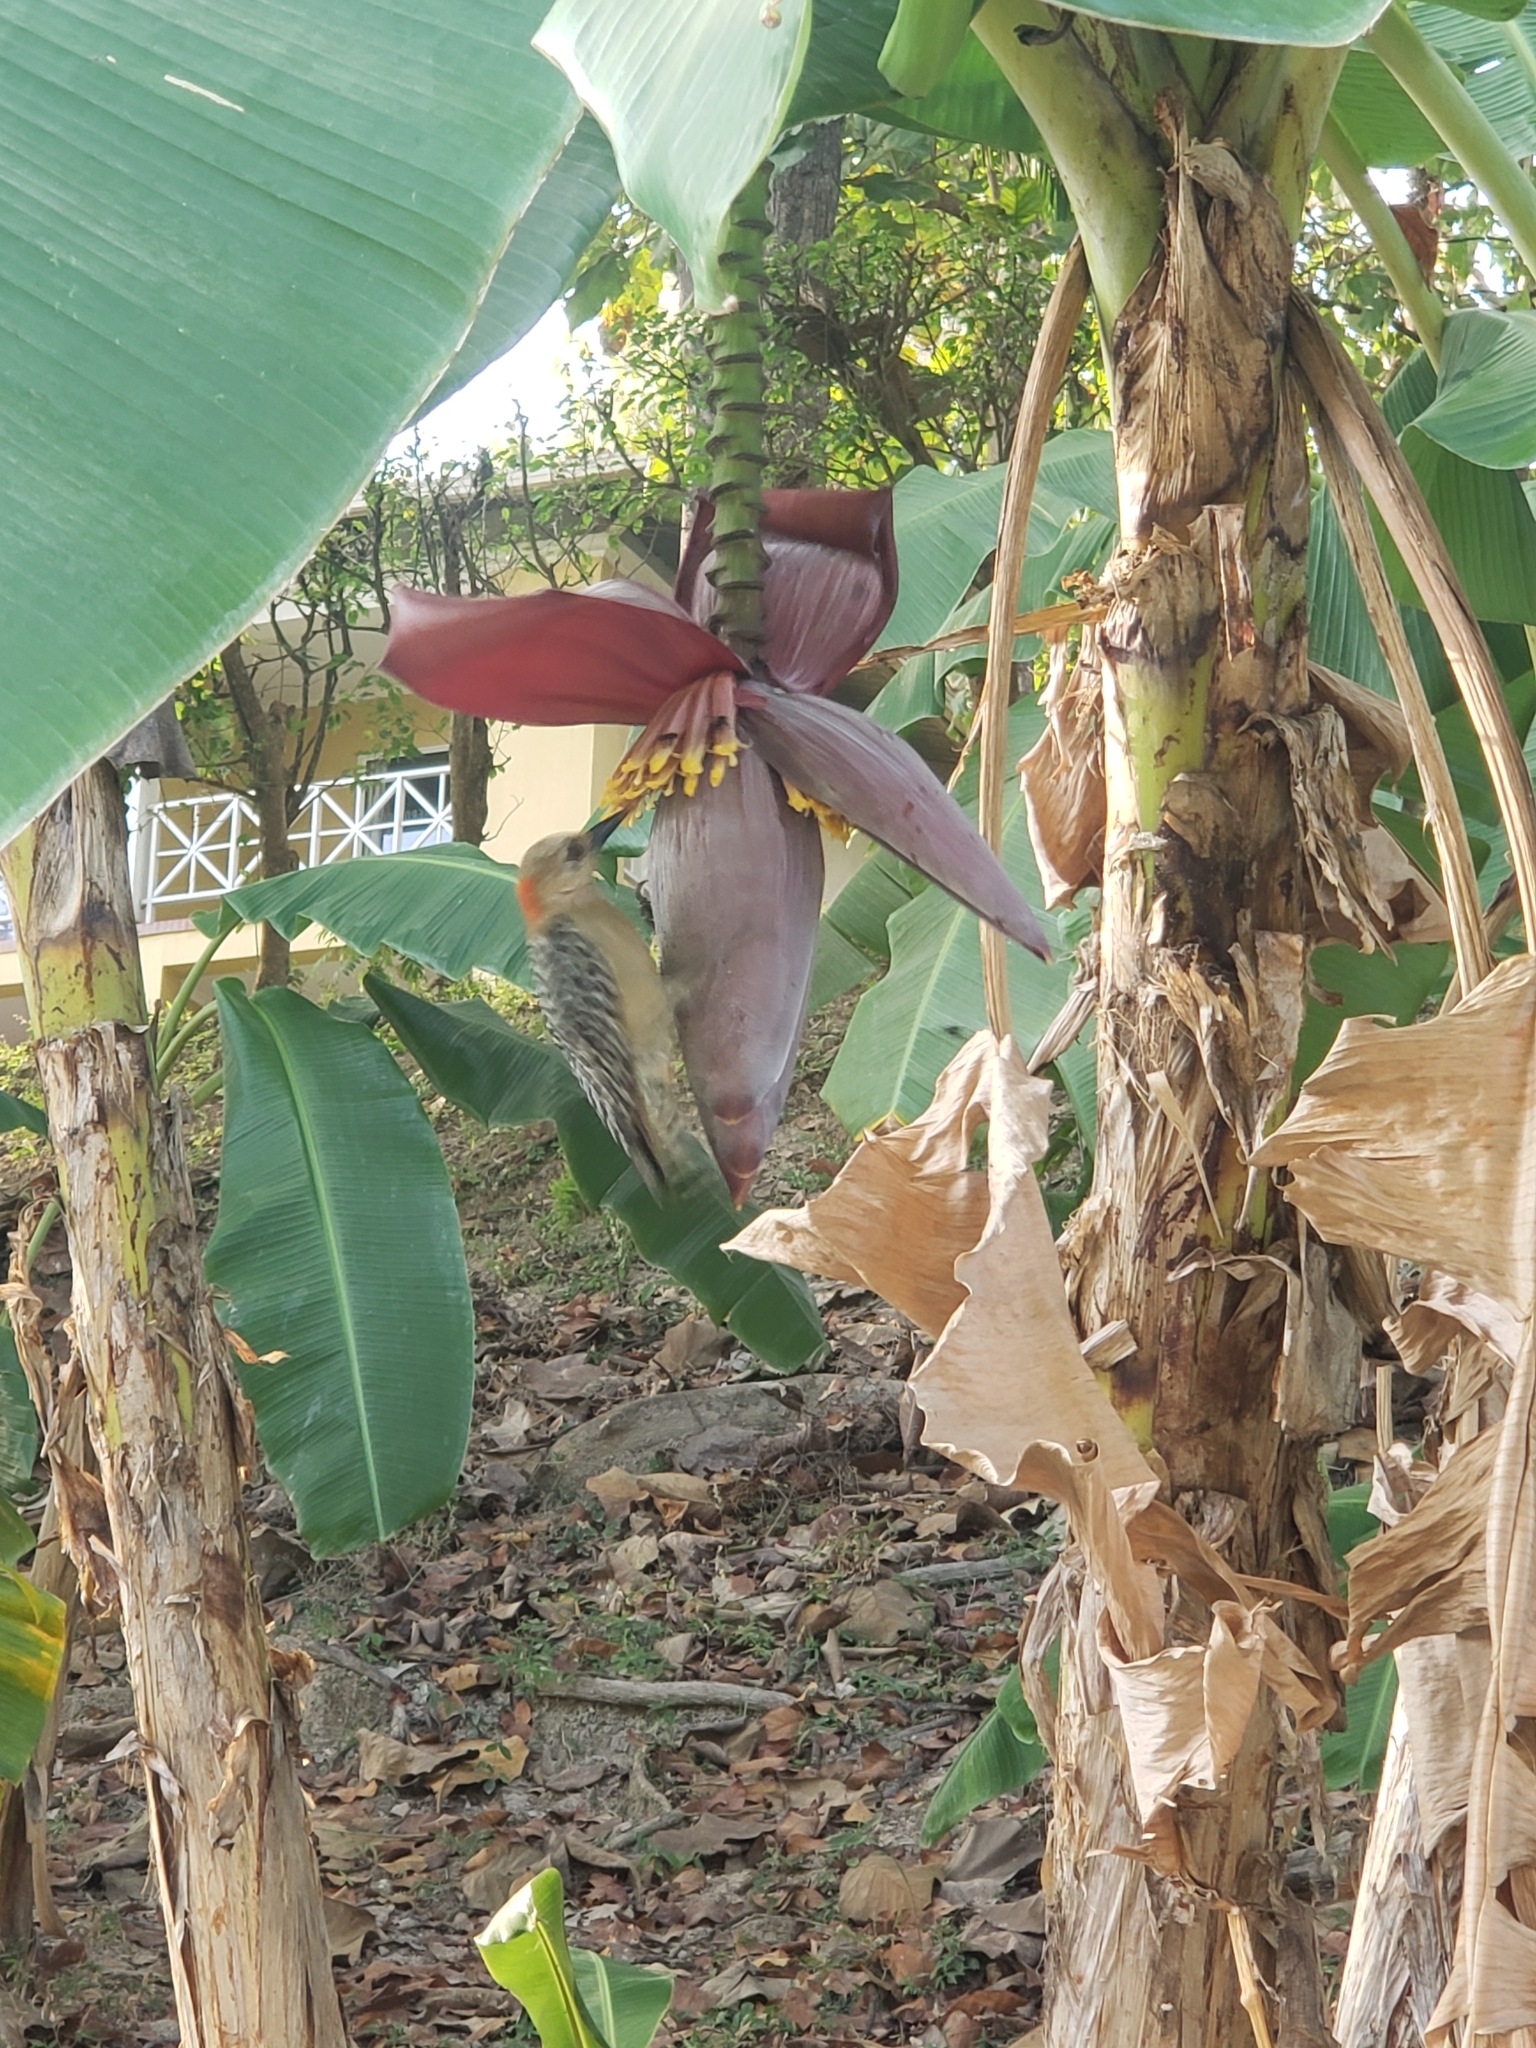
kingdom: Animalia
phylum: Chordata
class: Aves
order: Piciformes
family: Picidae
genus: Melanerpes
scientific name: Melanerpes rubricapillus
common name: Red-crowned woodpecker
